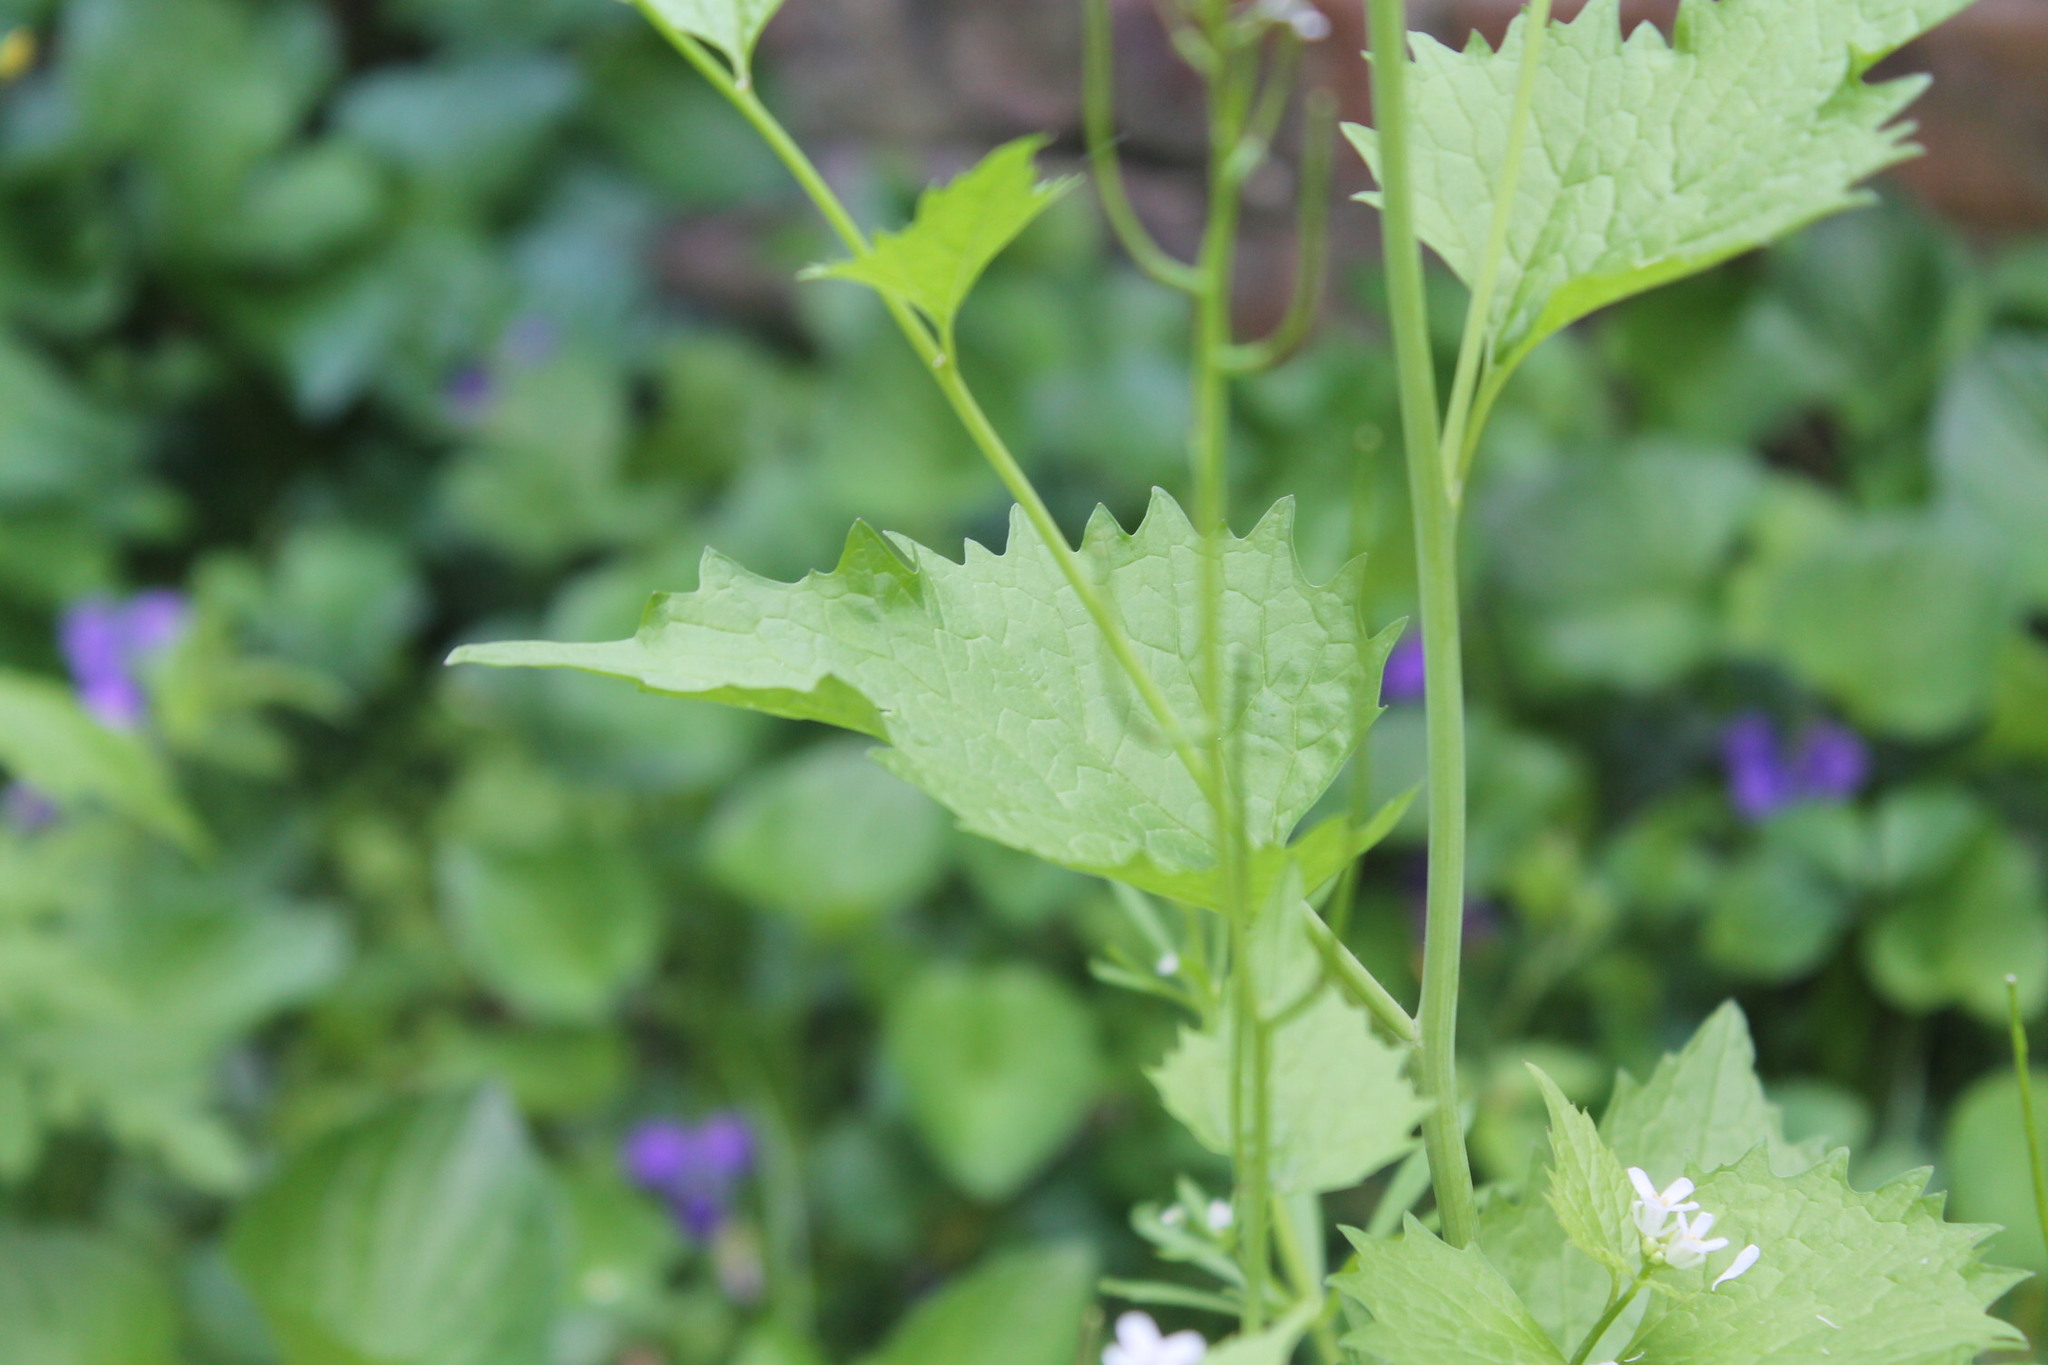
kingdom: Plantae
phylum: Tracheophyta
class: Magnoliopsida
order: Brassicales
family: Brassicaceae
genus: Alliaria
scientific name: Alliaria petiolata
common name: Garlic mustard
